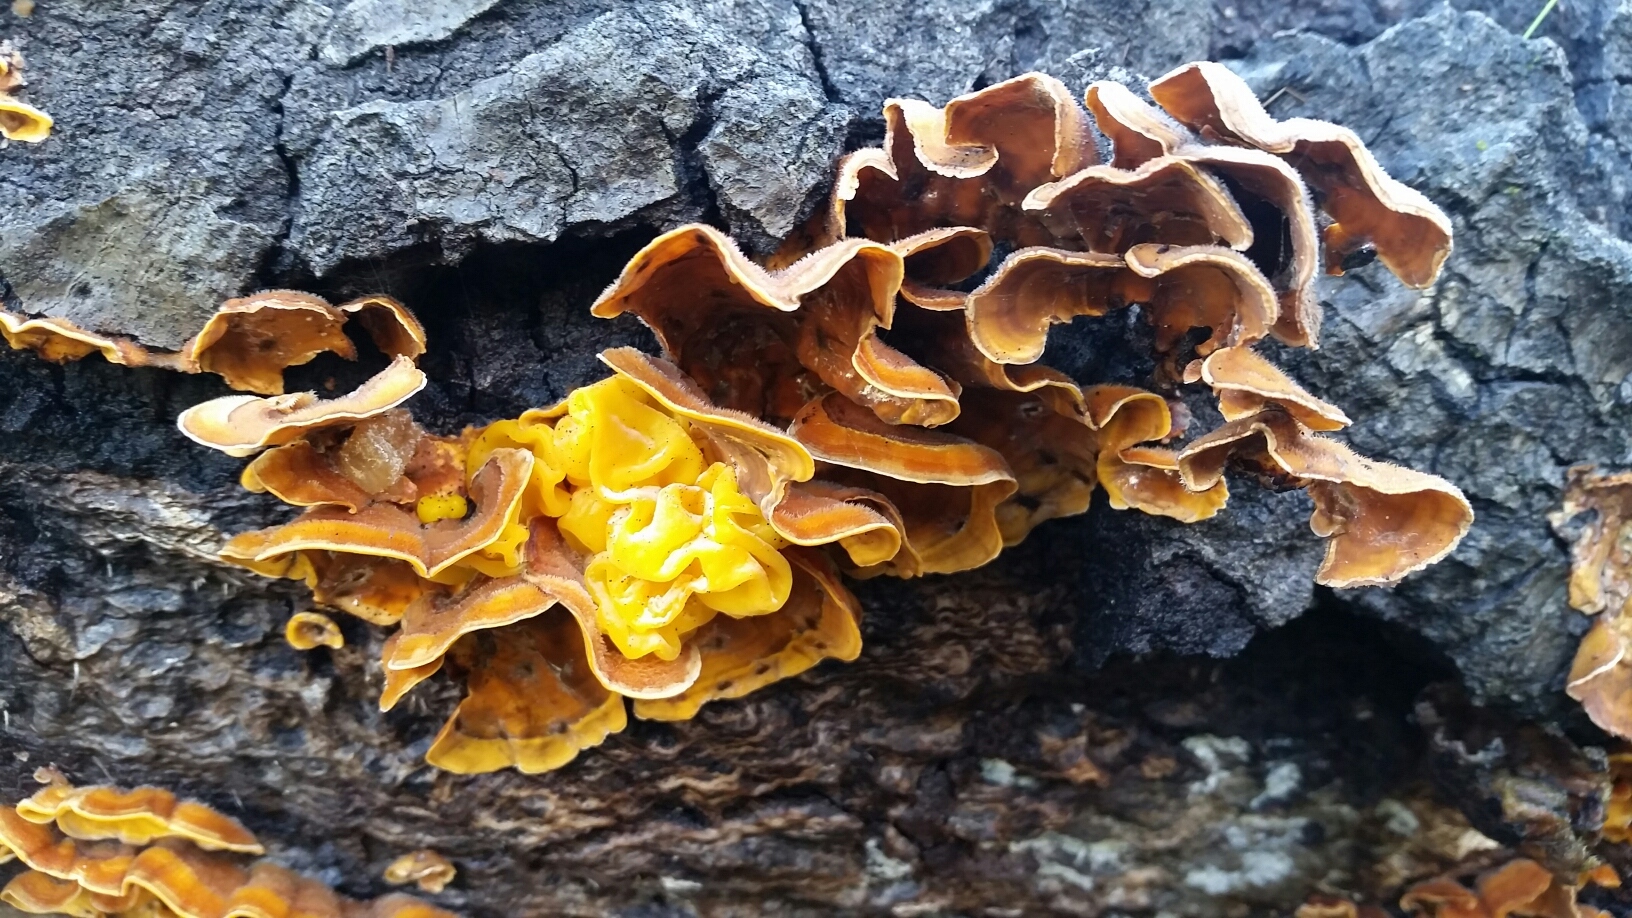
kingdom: Fungi
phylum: Basidiomycota
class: Tremellomycetes
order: Tremellales
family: Naemateliaceae
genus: Naematelia
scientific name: Naematelia aurantia
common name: Golden ear
